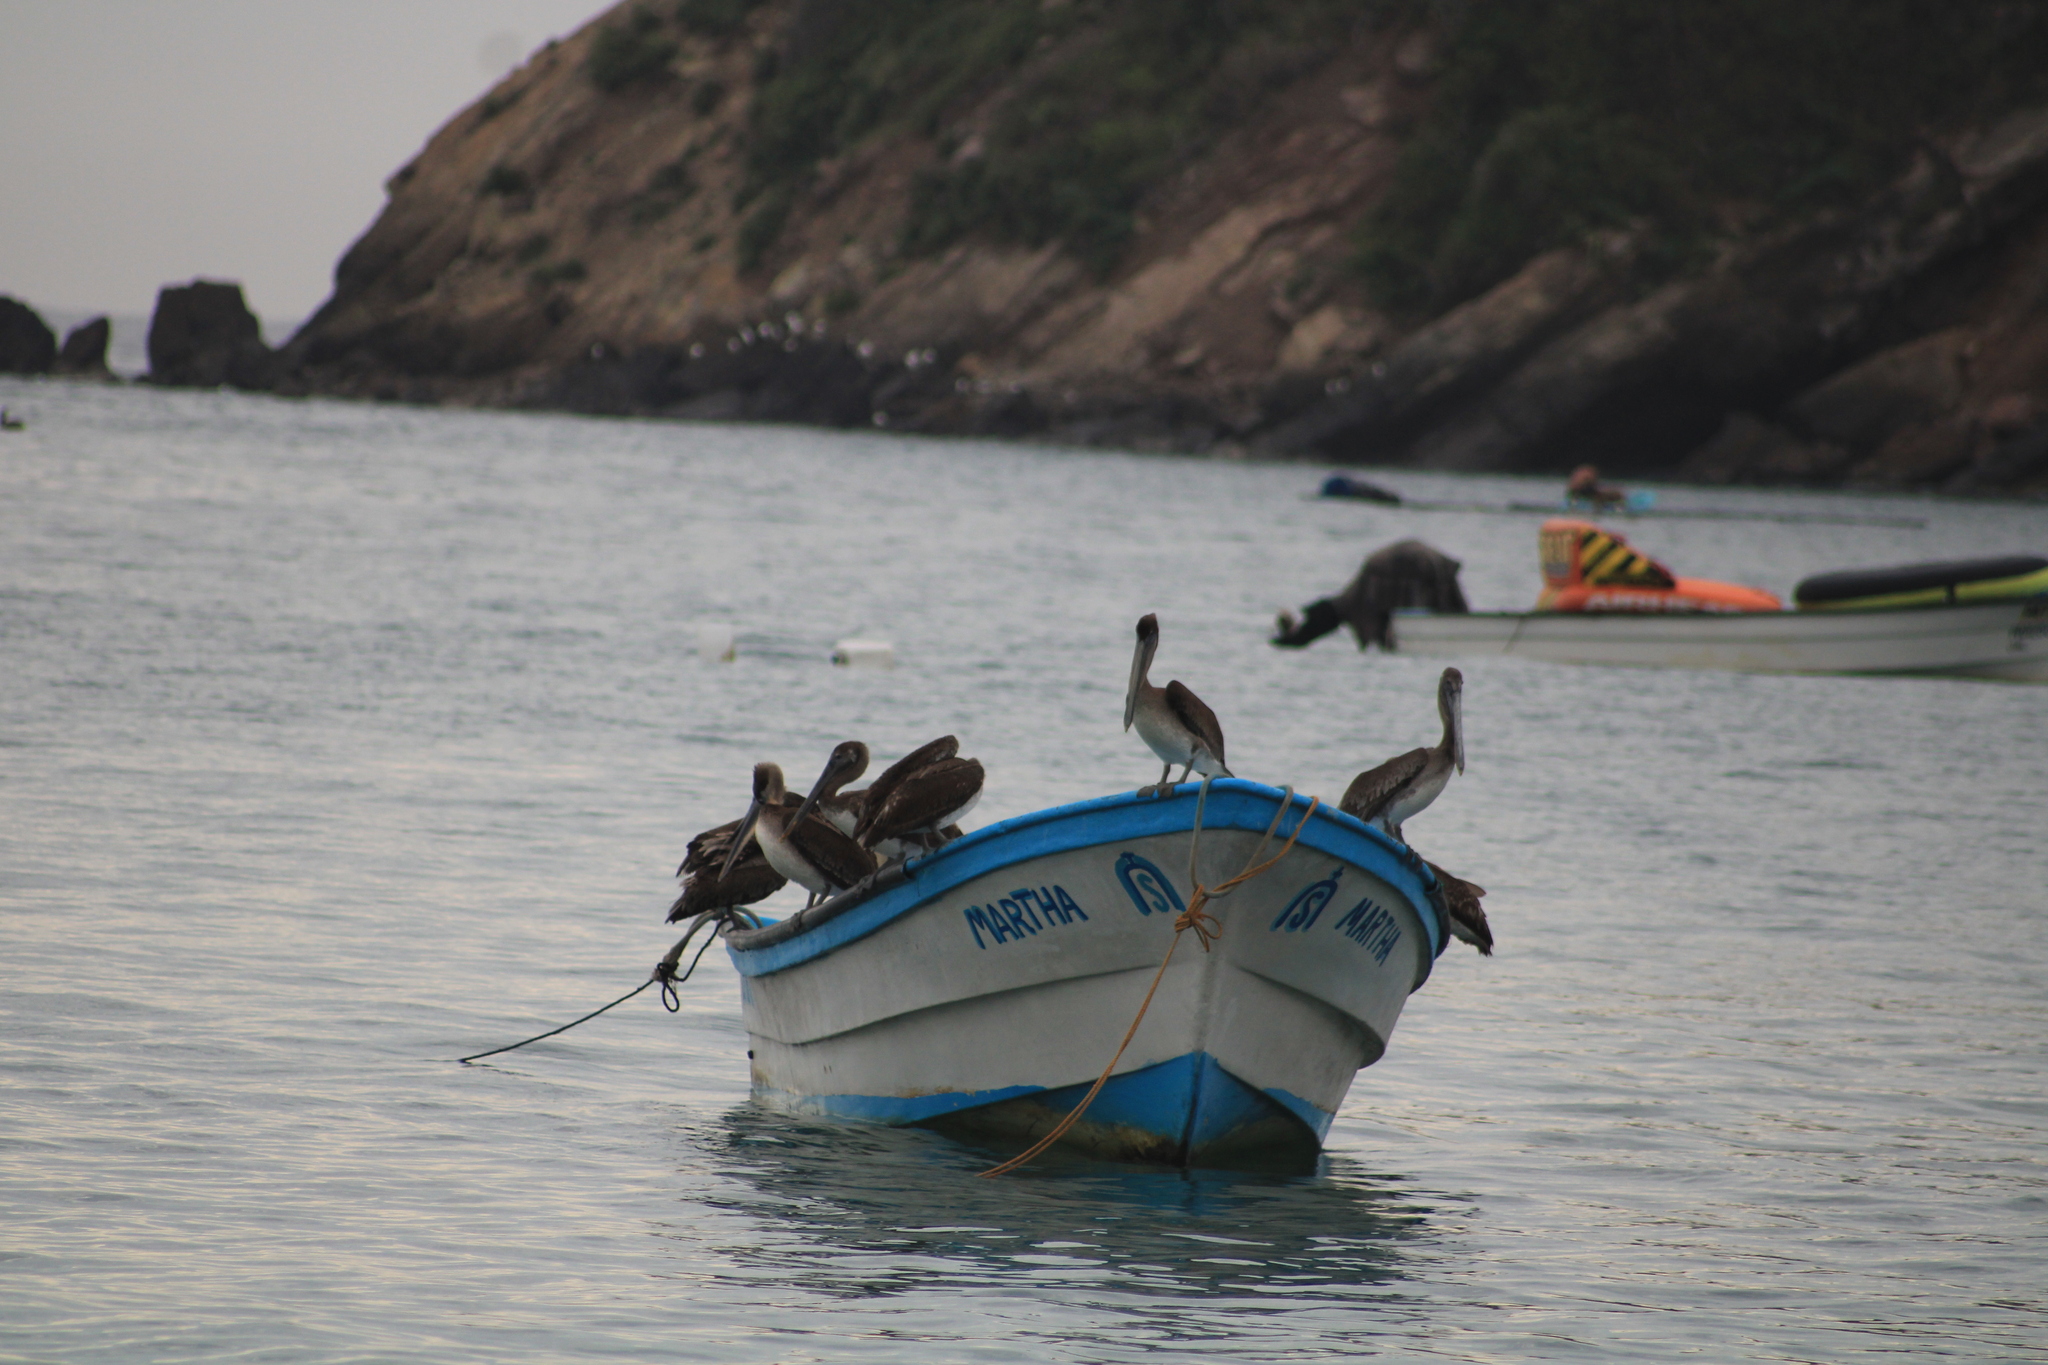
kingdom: Animalia
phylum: Chordata
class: Aves
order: Pelecaniformes
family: Pelecanidae
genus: Pelecanus
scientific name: Pelecanus occidentalis
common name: Brown pelican
